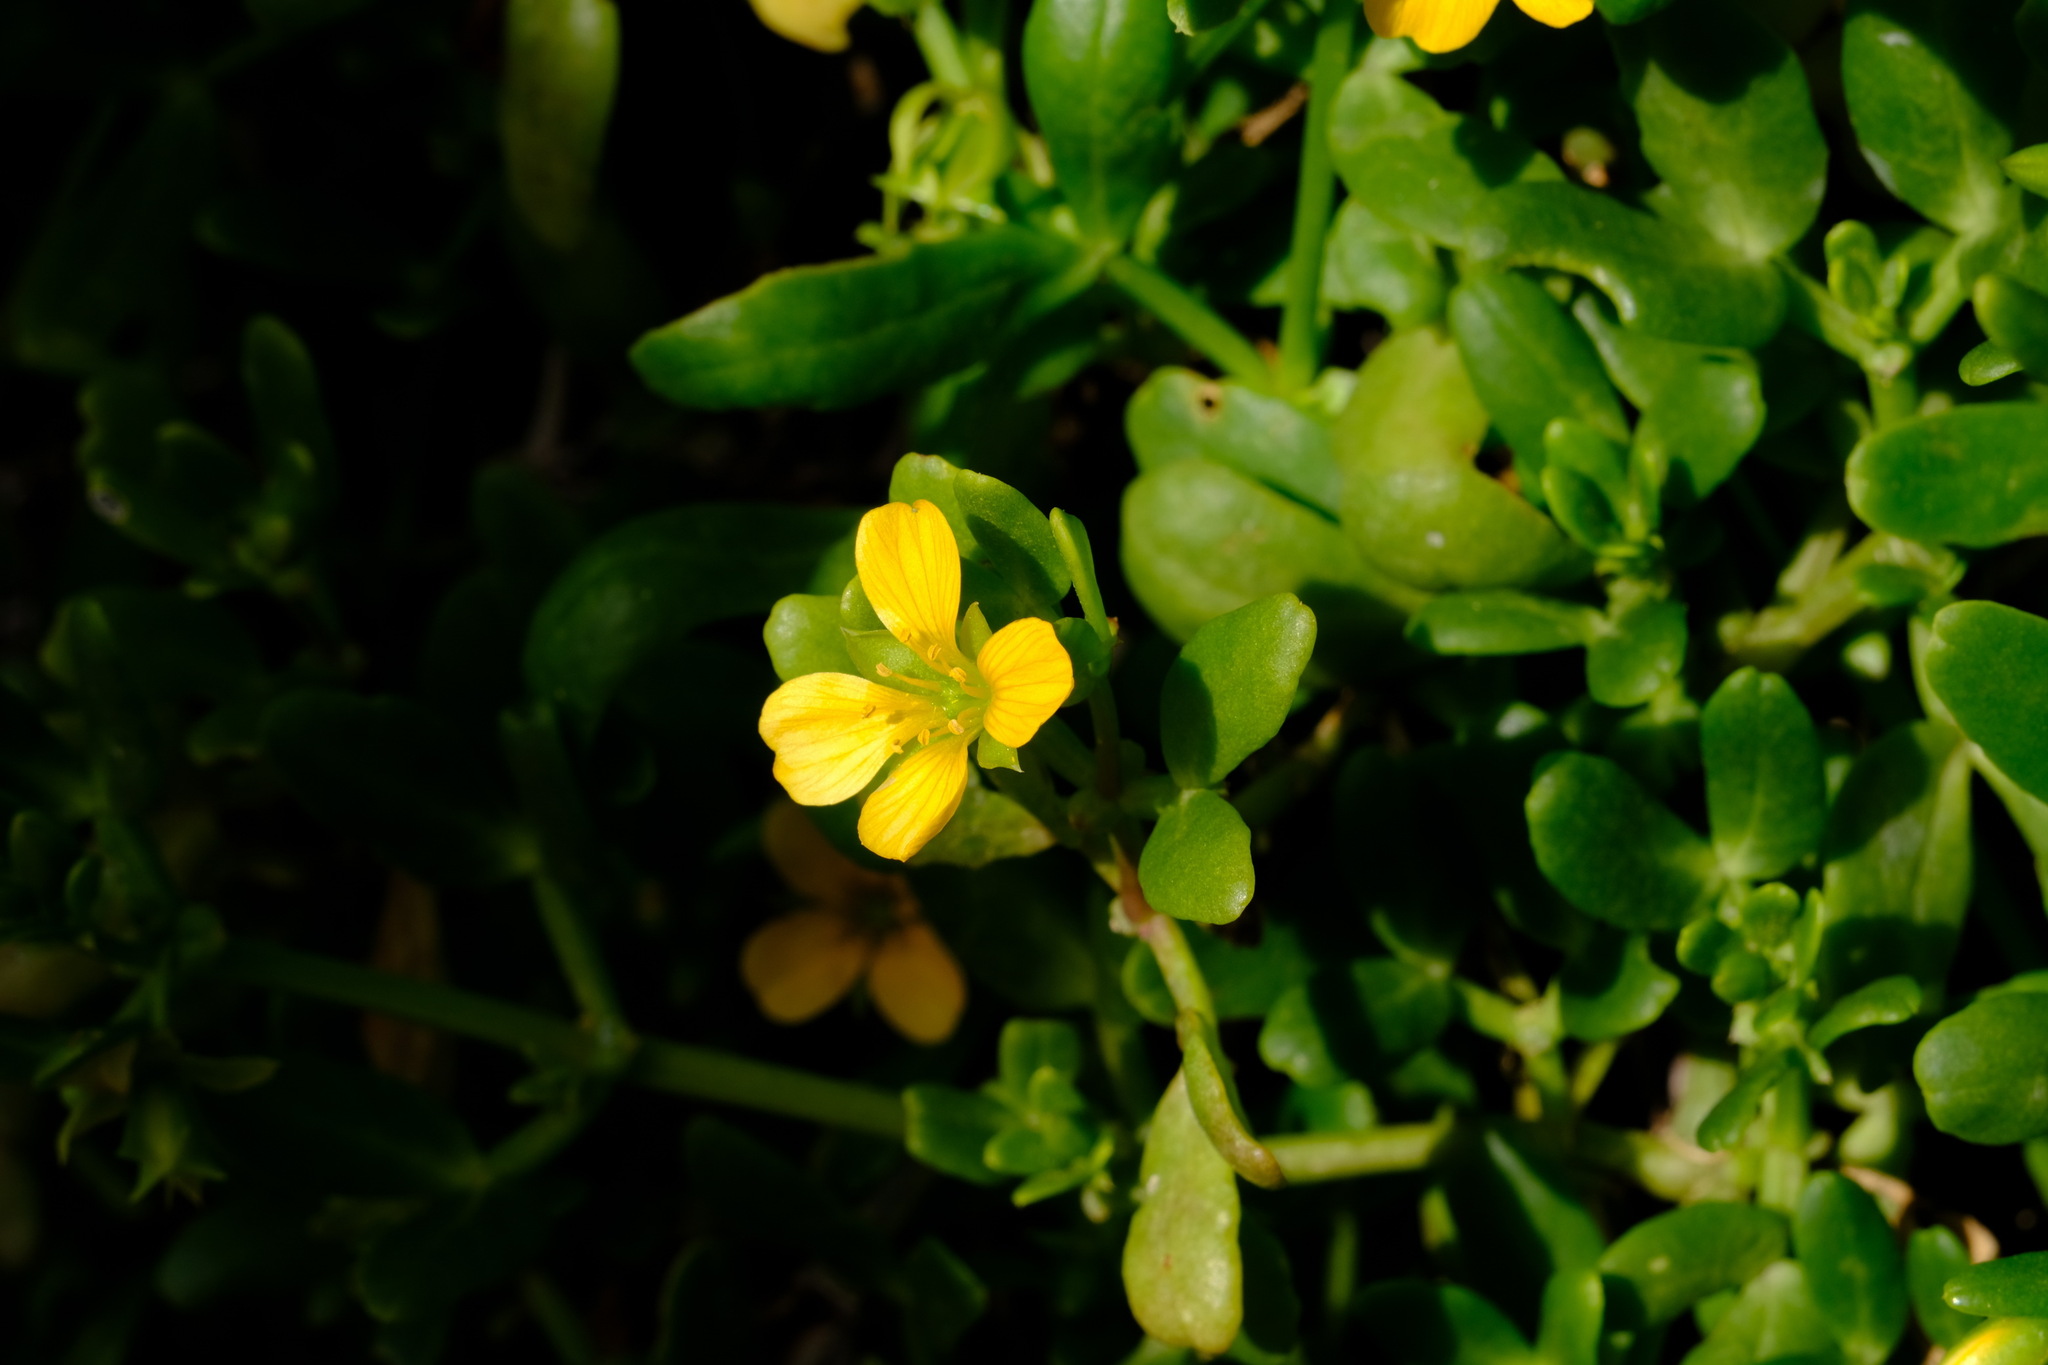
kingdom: Plantae
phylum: Tracheophyta
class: Magnoliopsida
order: Zygophyllales
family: Zygophyllaceae
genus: Roepera
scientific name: Roepera billardieri
